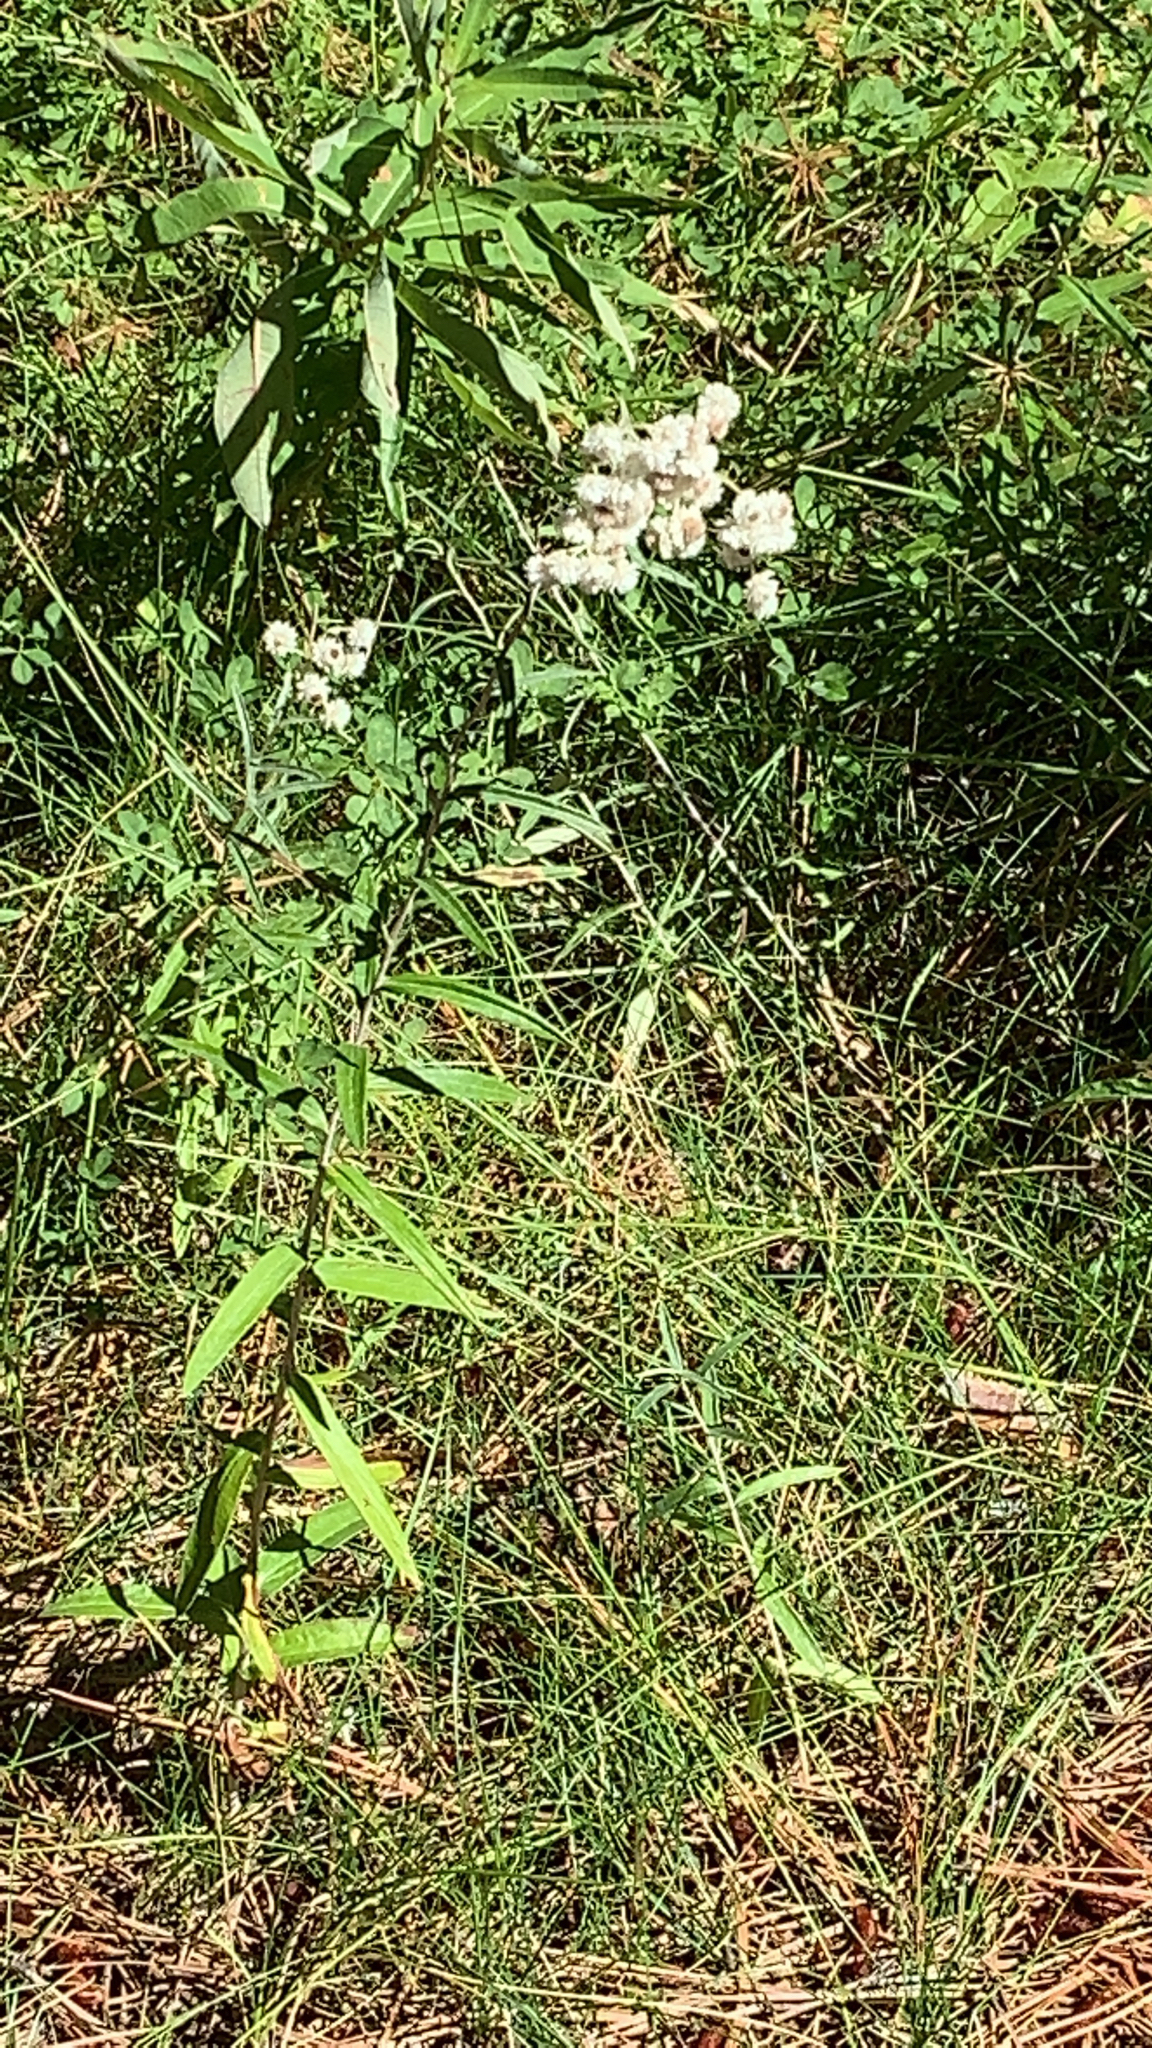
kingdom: Plantae
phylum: Tracheophyta
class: Magnoliopsida
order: Asterales
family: Asteraceae
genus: Anaphalis
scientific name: Anaphalis margaritacea
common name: Pearly everlasting
